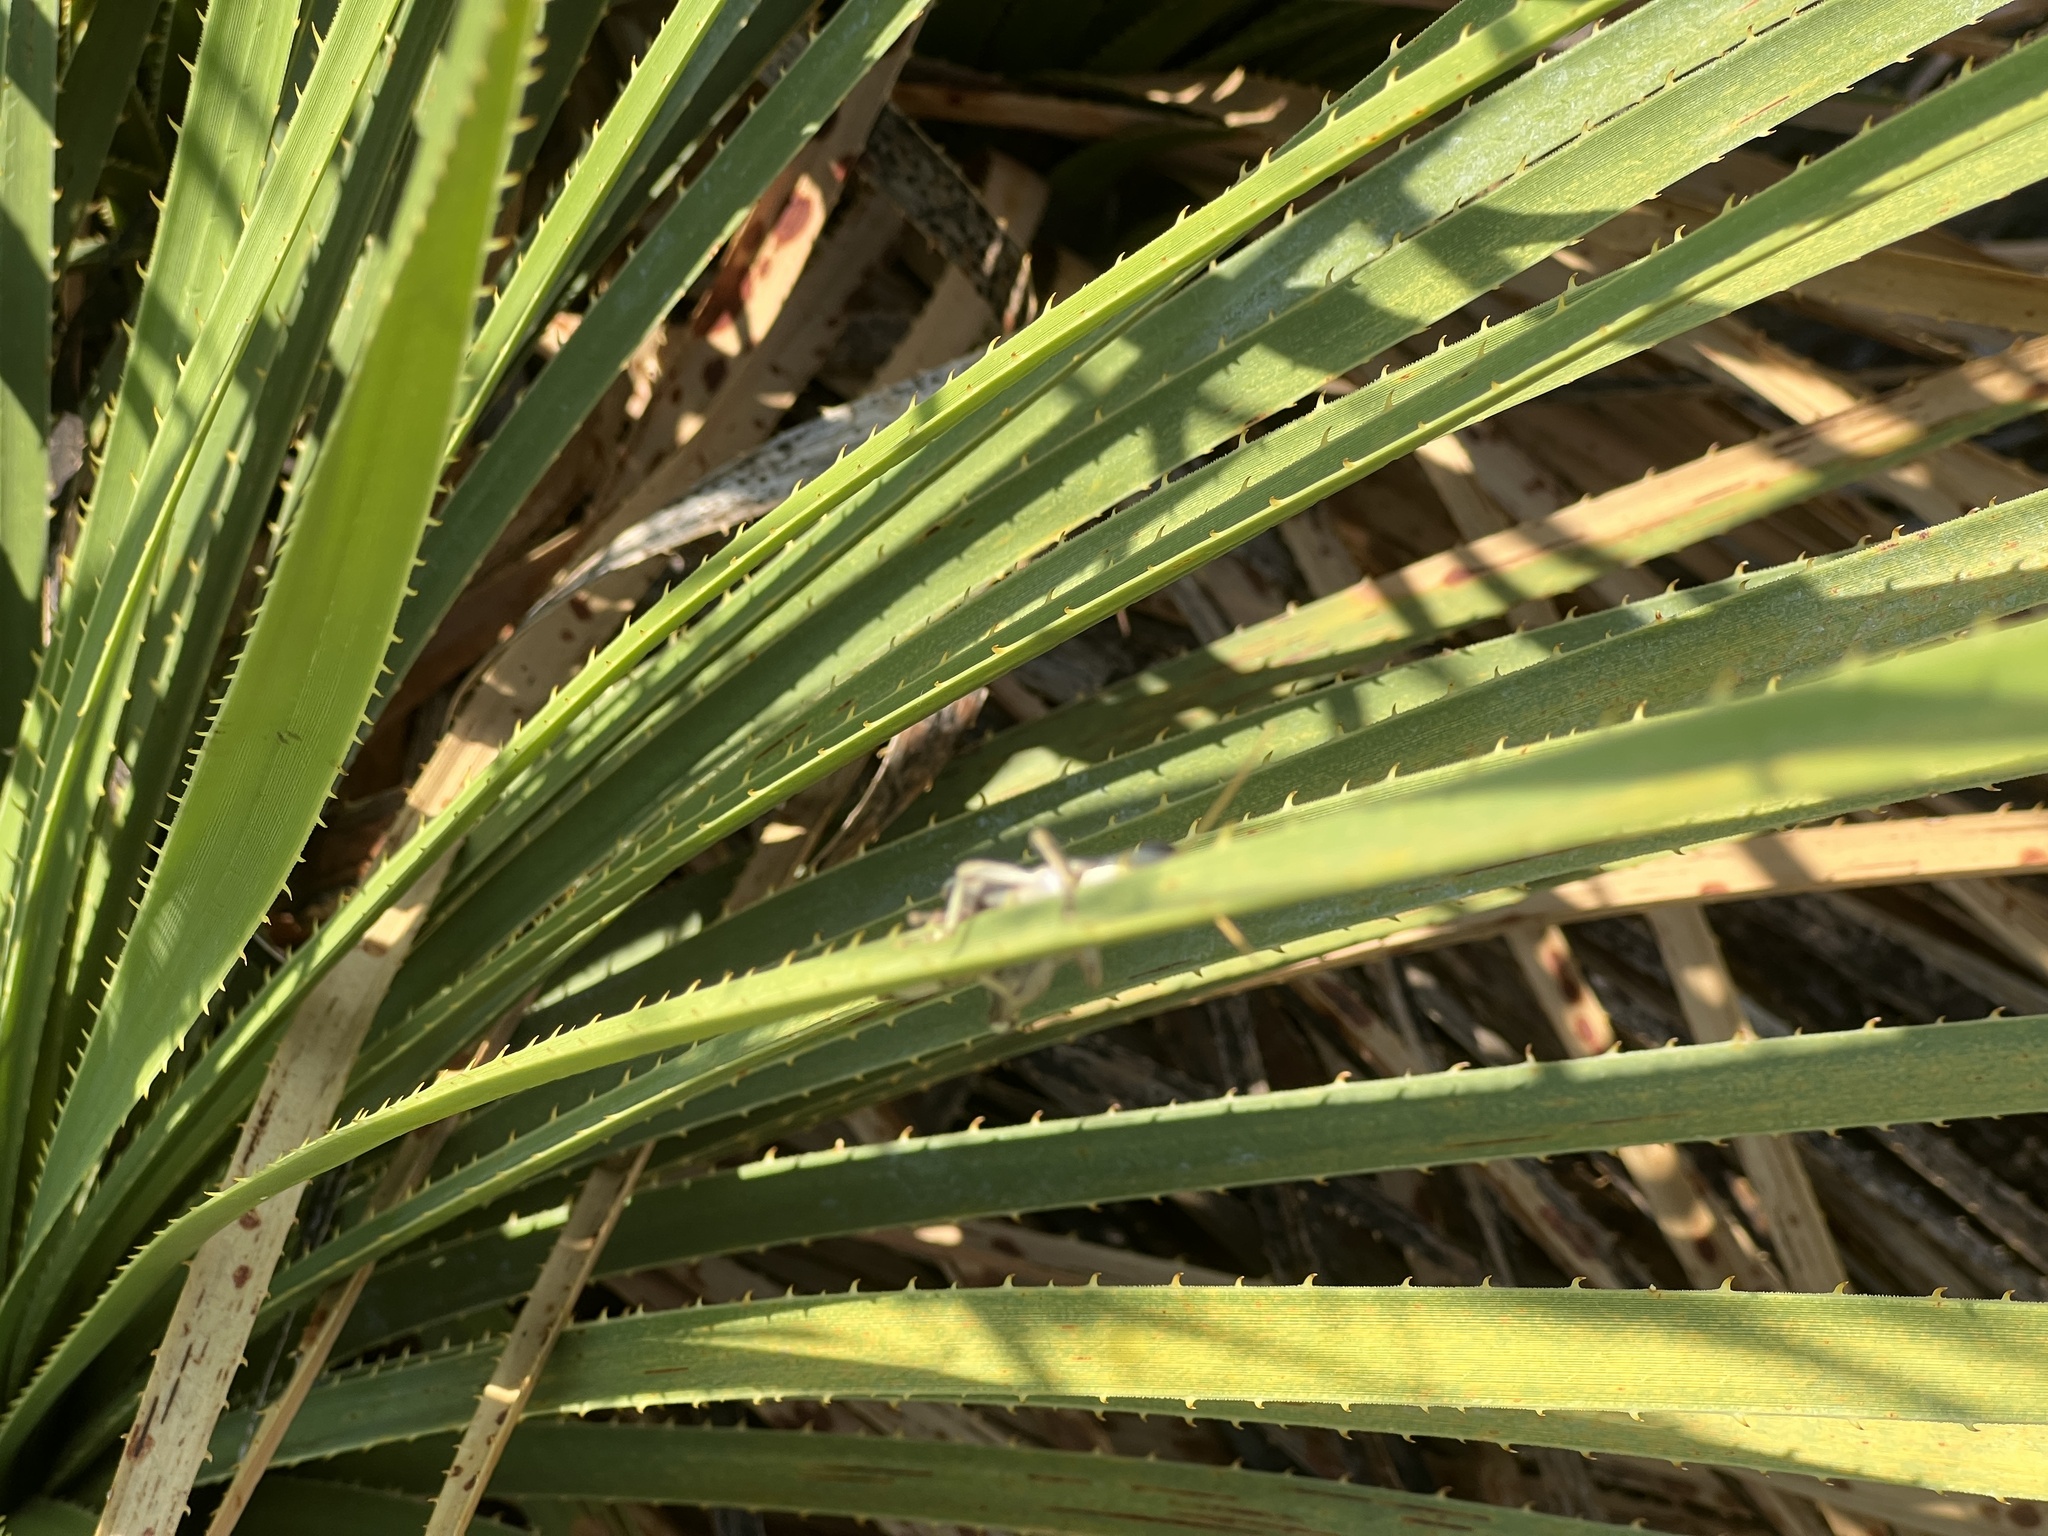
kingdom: Animalia
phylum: Arthropoda
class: Insecta
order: Orthoptera
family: Acrididae
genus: Schistocerca
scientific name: Schistocerca nitens
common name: Vagrant grasshopper
